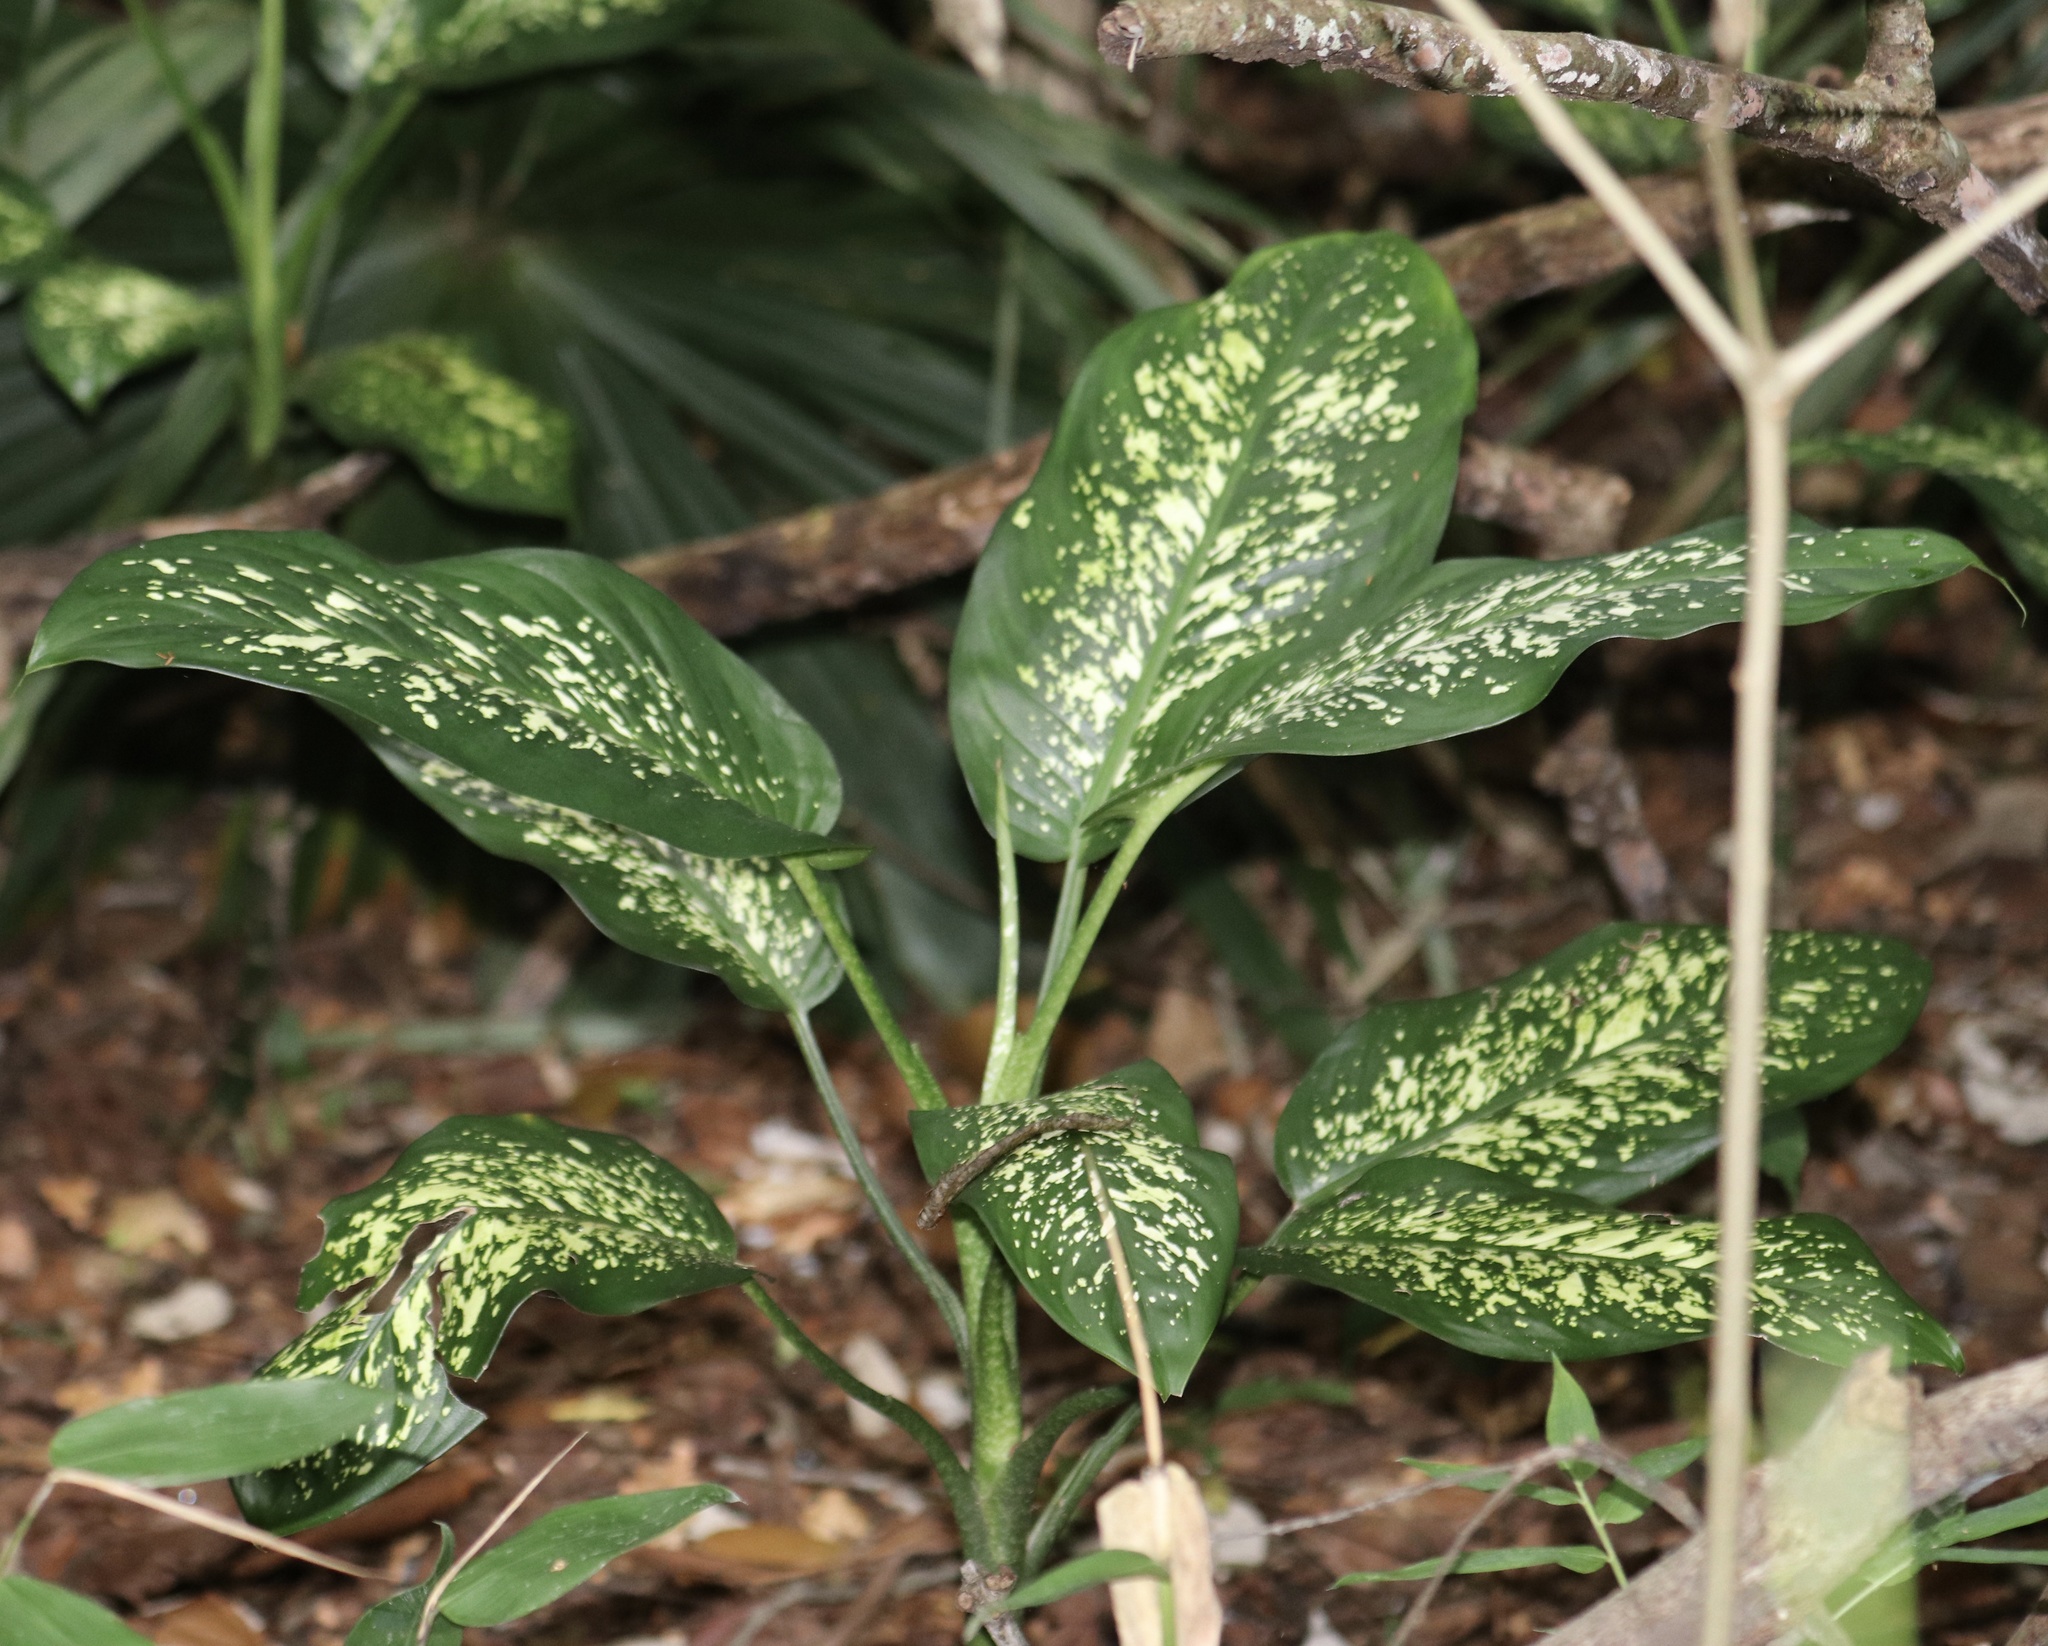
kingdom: Plantae
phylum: Tracheophyta
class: Liliopsida
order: Alismatales
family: Araceae
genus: Dieffenbachia
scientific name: Dieffenbachia seguine
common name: Dumbcane
